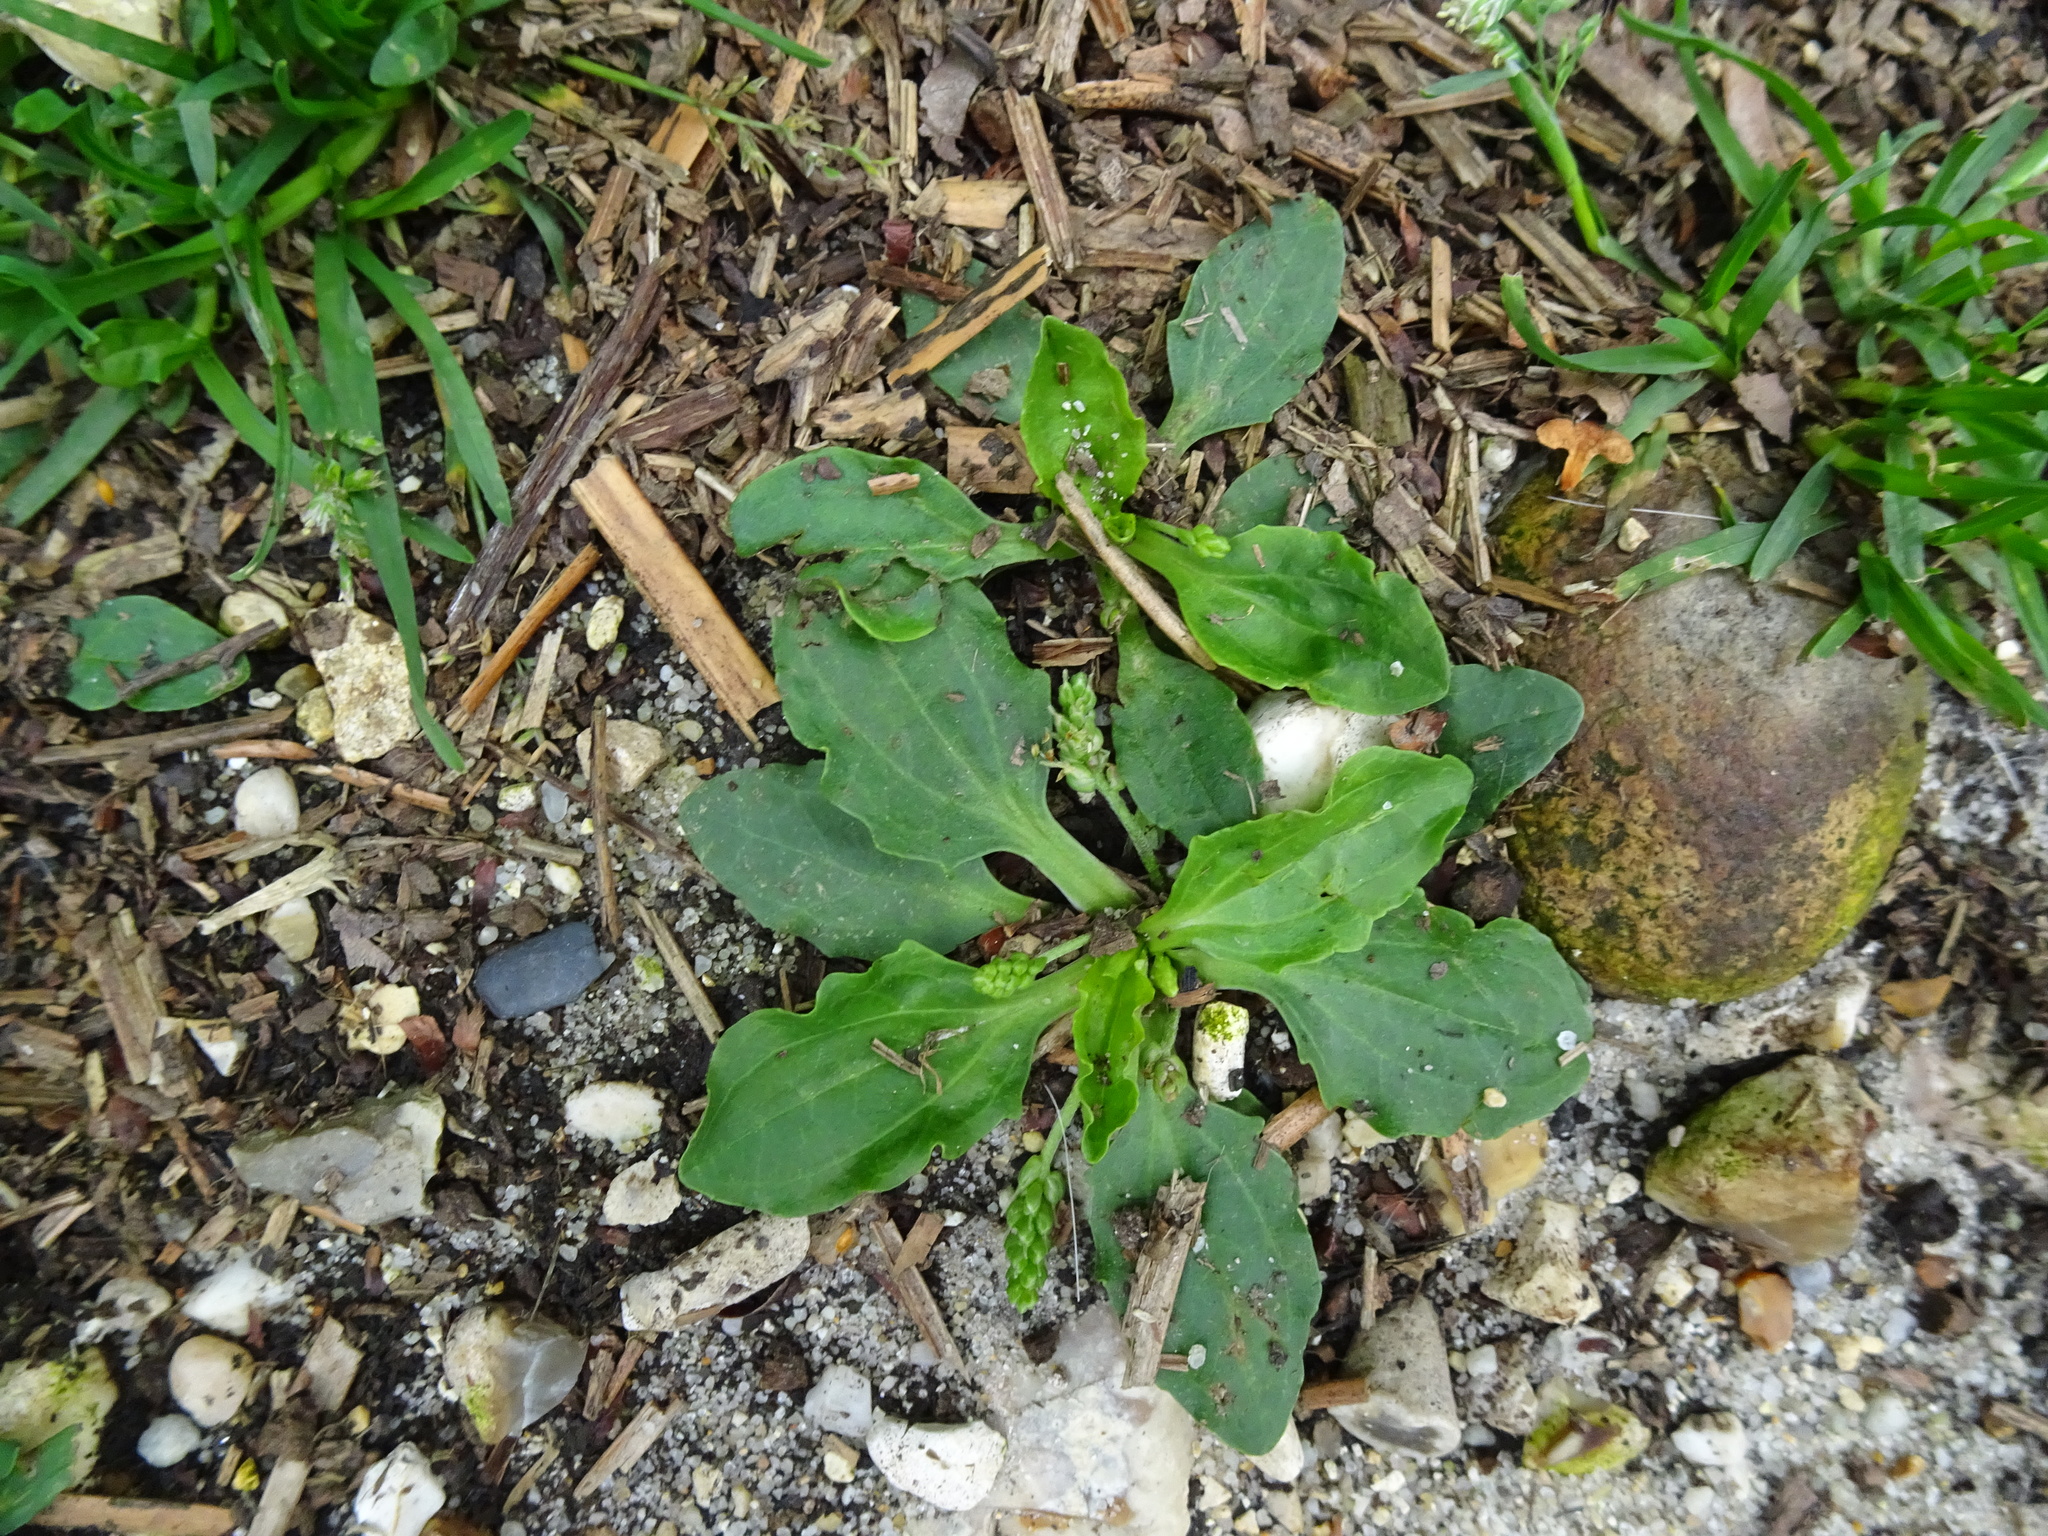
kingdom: Plantae
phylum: Tracheophyta
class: Magnoliopsida
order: Lamiales
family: Plantaginaceae
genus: Plantago
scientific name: Plantago major
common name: Common plantain
